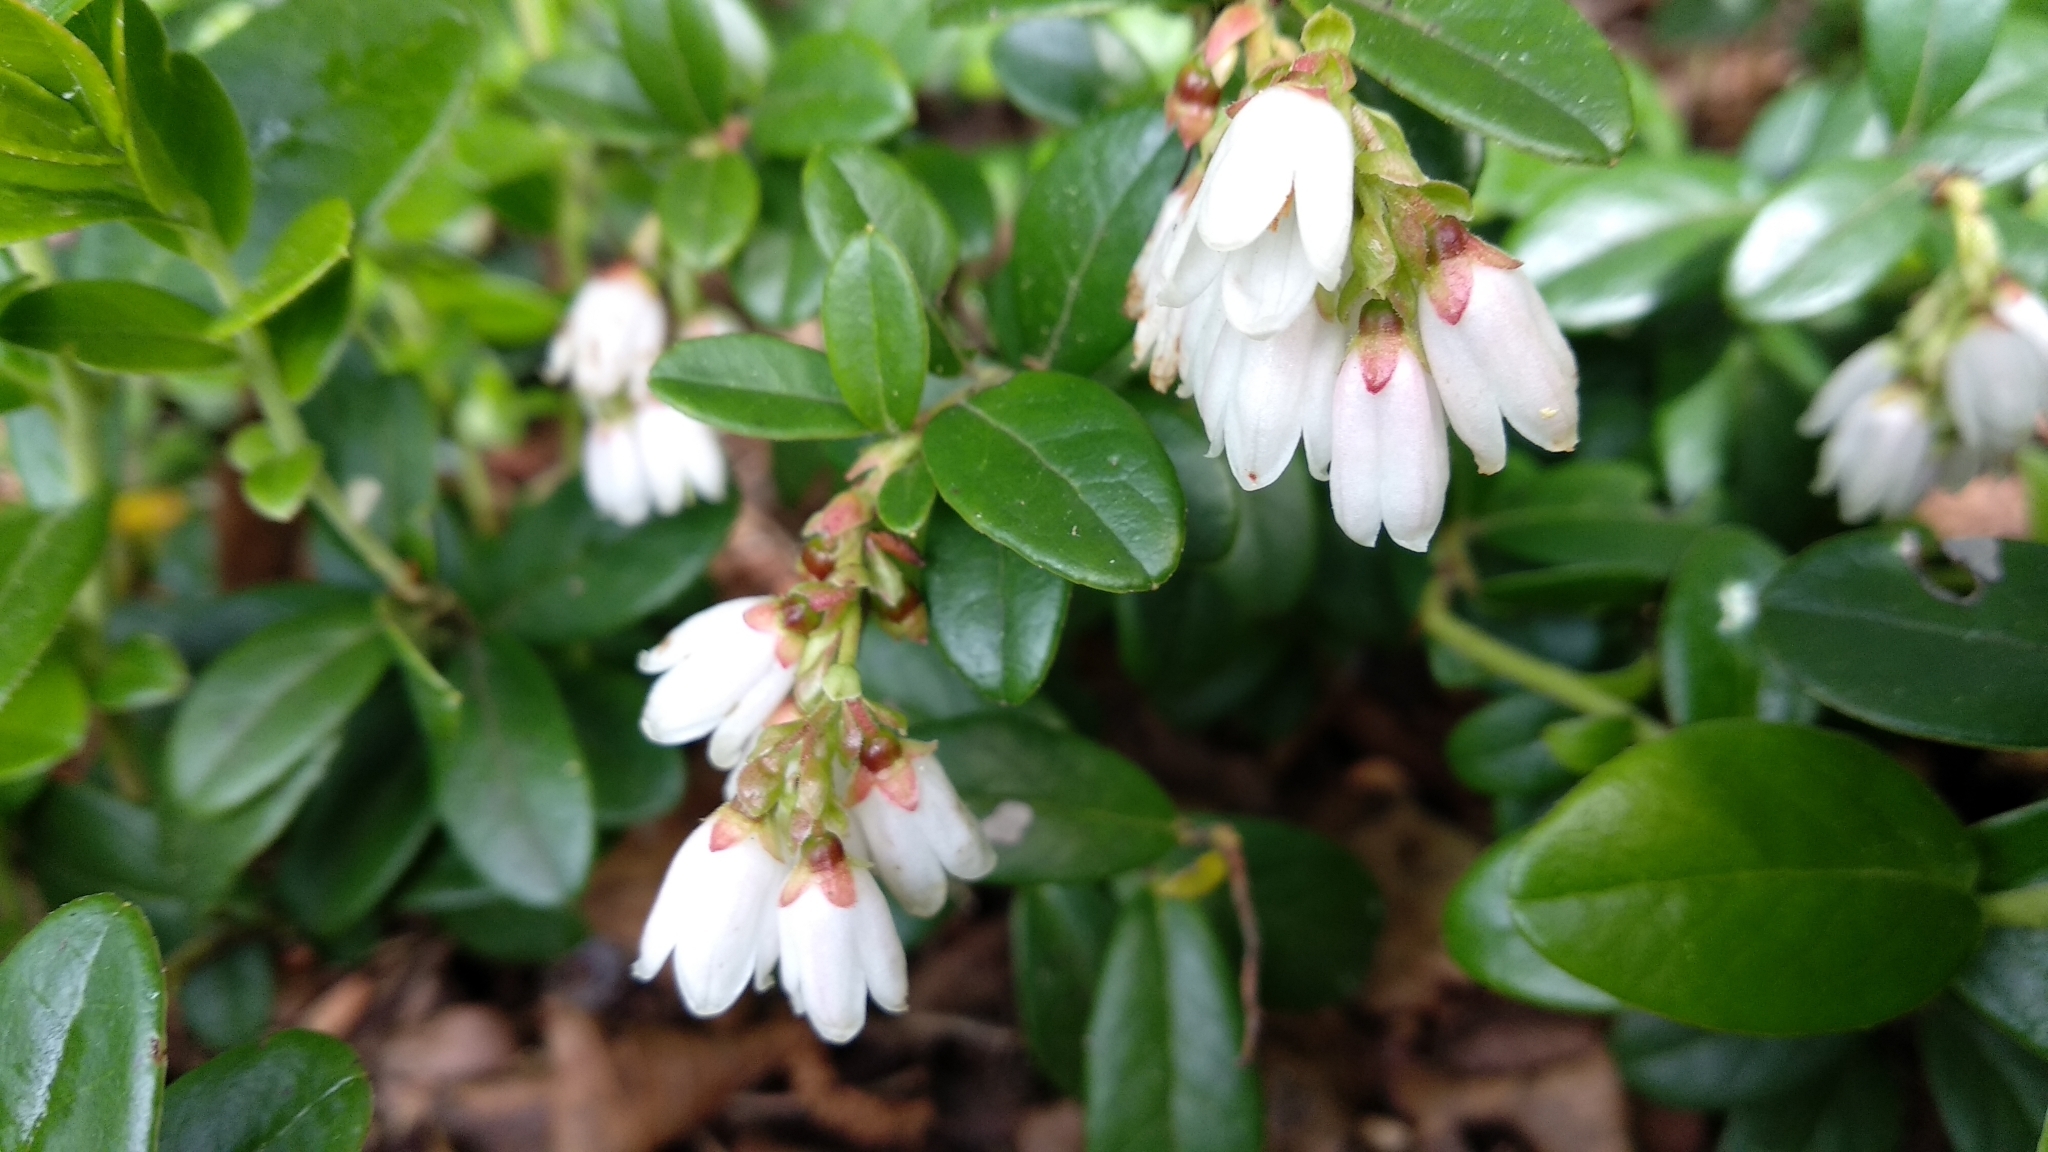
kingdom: Plantae
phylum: Tracheophyta
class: Magnoliopsida
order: Ericales
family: Ericaceae
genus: Vaccinium
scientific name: Vaccinium vitis-idaea
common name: Cowberry
